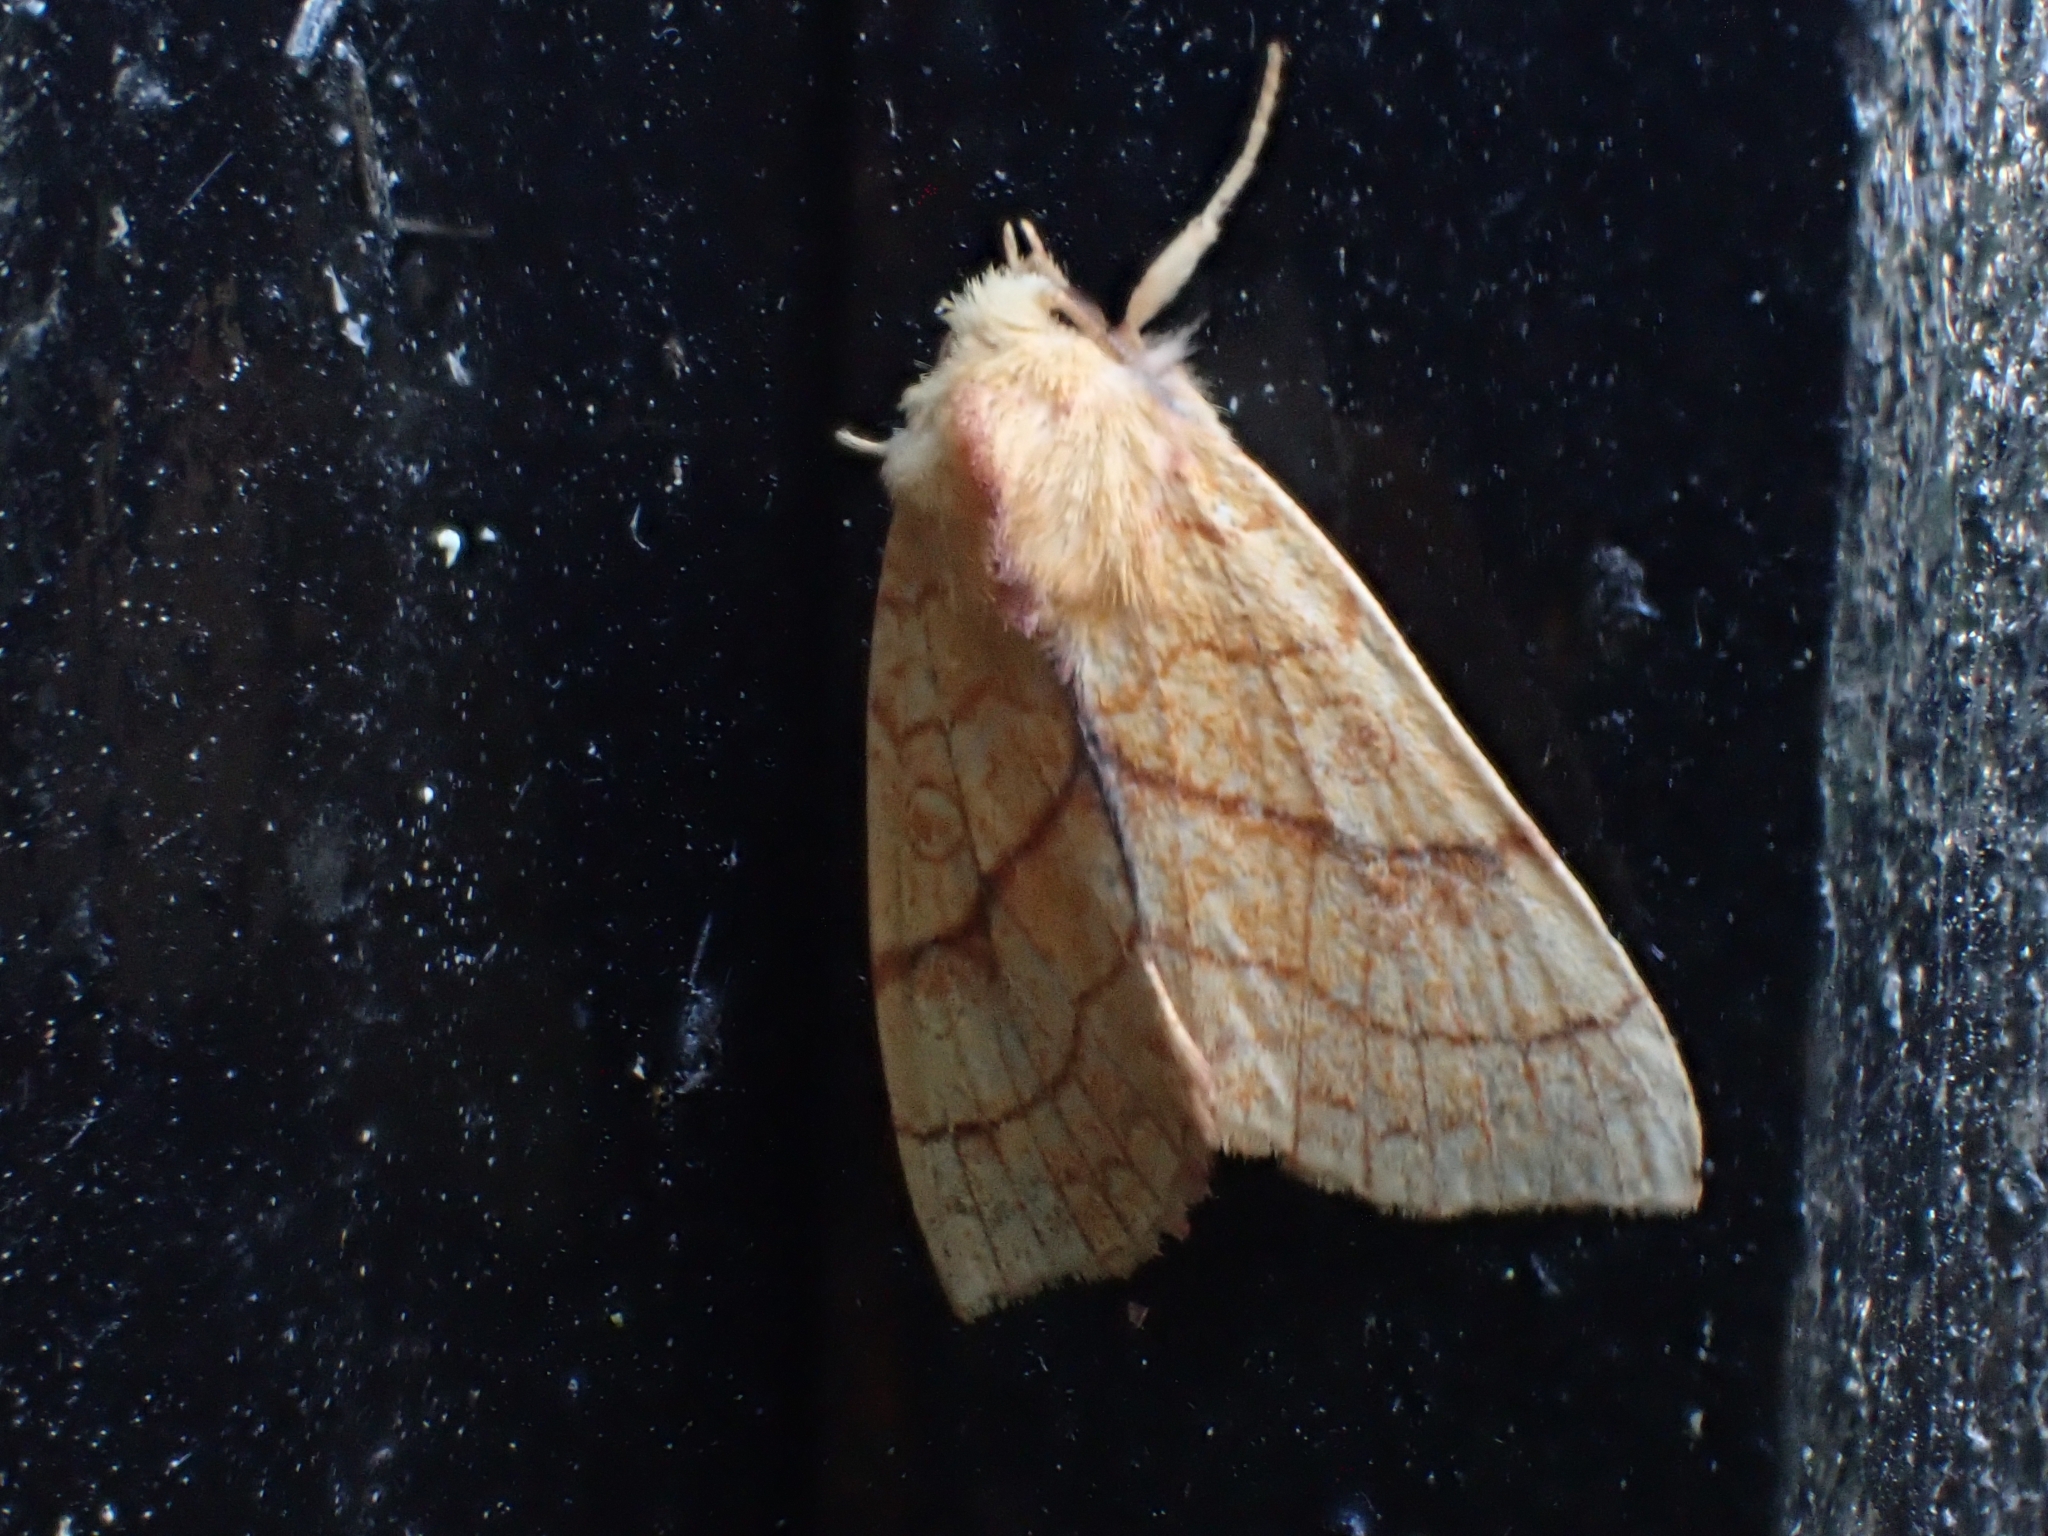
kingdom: Animalia
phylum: Arthropoda
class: Insecta
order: Lepidoptera
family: Noctuidae
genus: Tiliacea
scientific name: Tiliacea citrago
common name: Orange sallow
